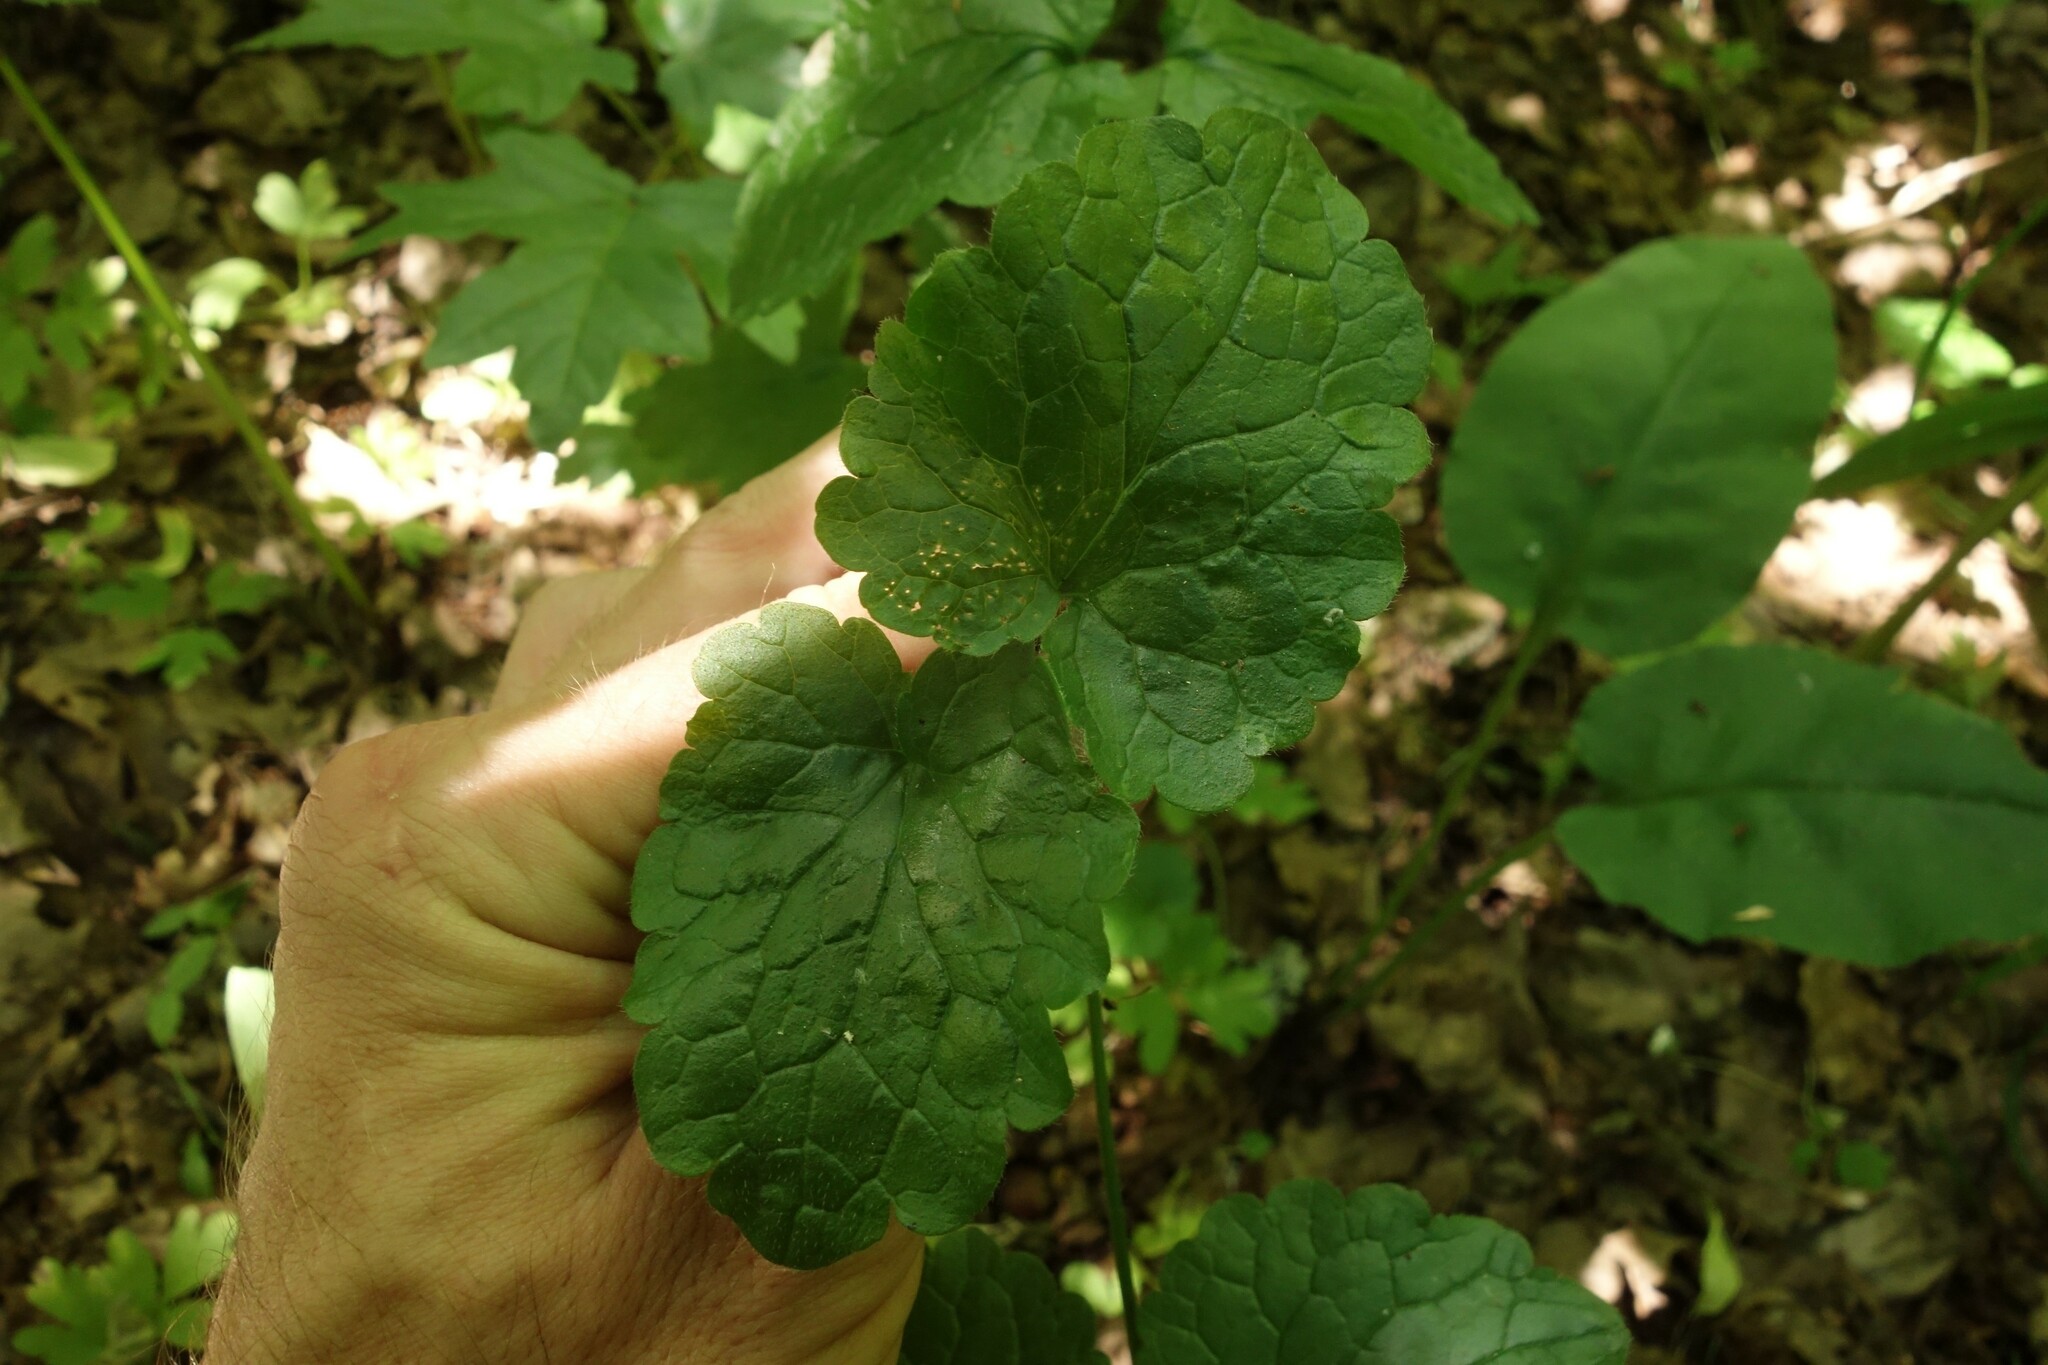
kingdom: Plantae
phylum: Tracheophyta
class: Magnoliopsida
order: Lamiales
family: Lamiaceae
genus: Glechoma
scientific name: Glechoma hederacea
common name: Ground ivy
